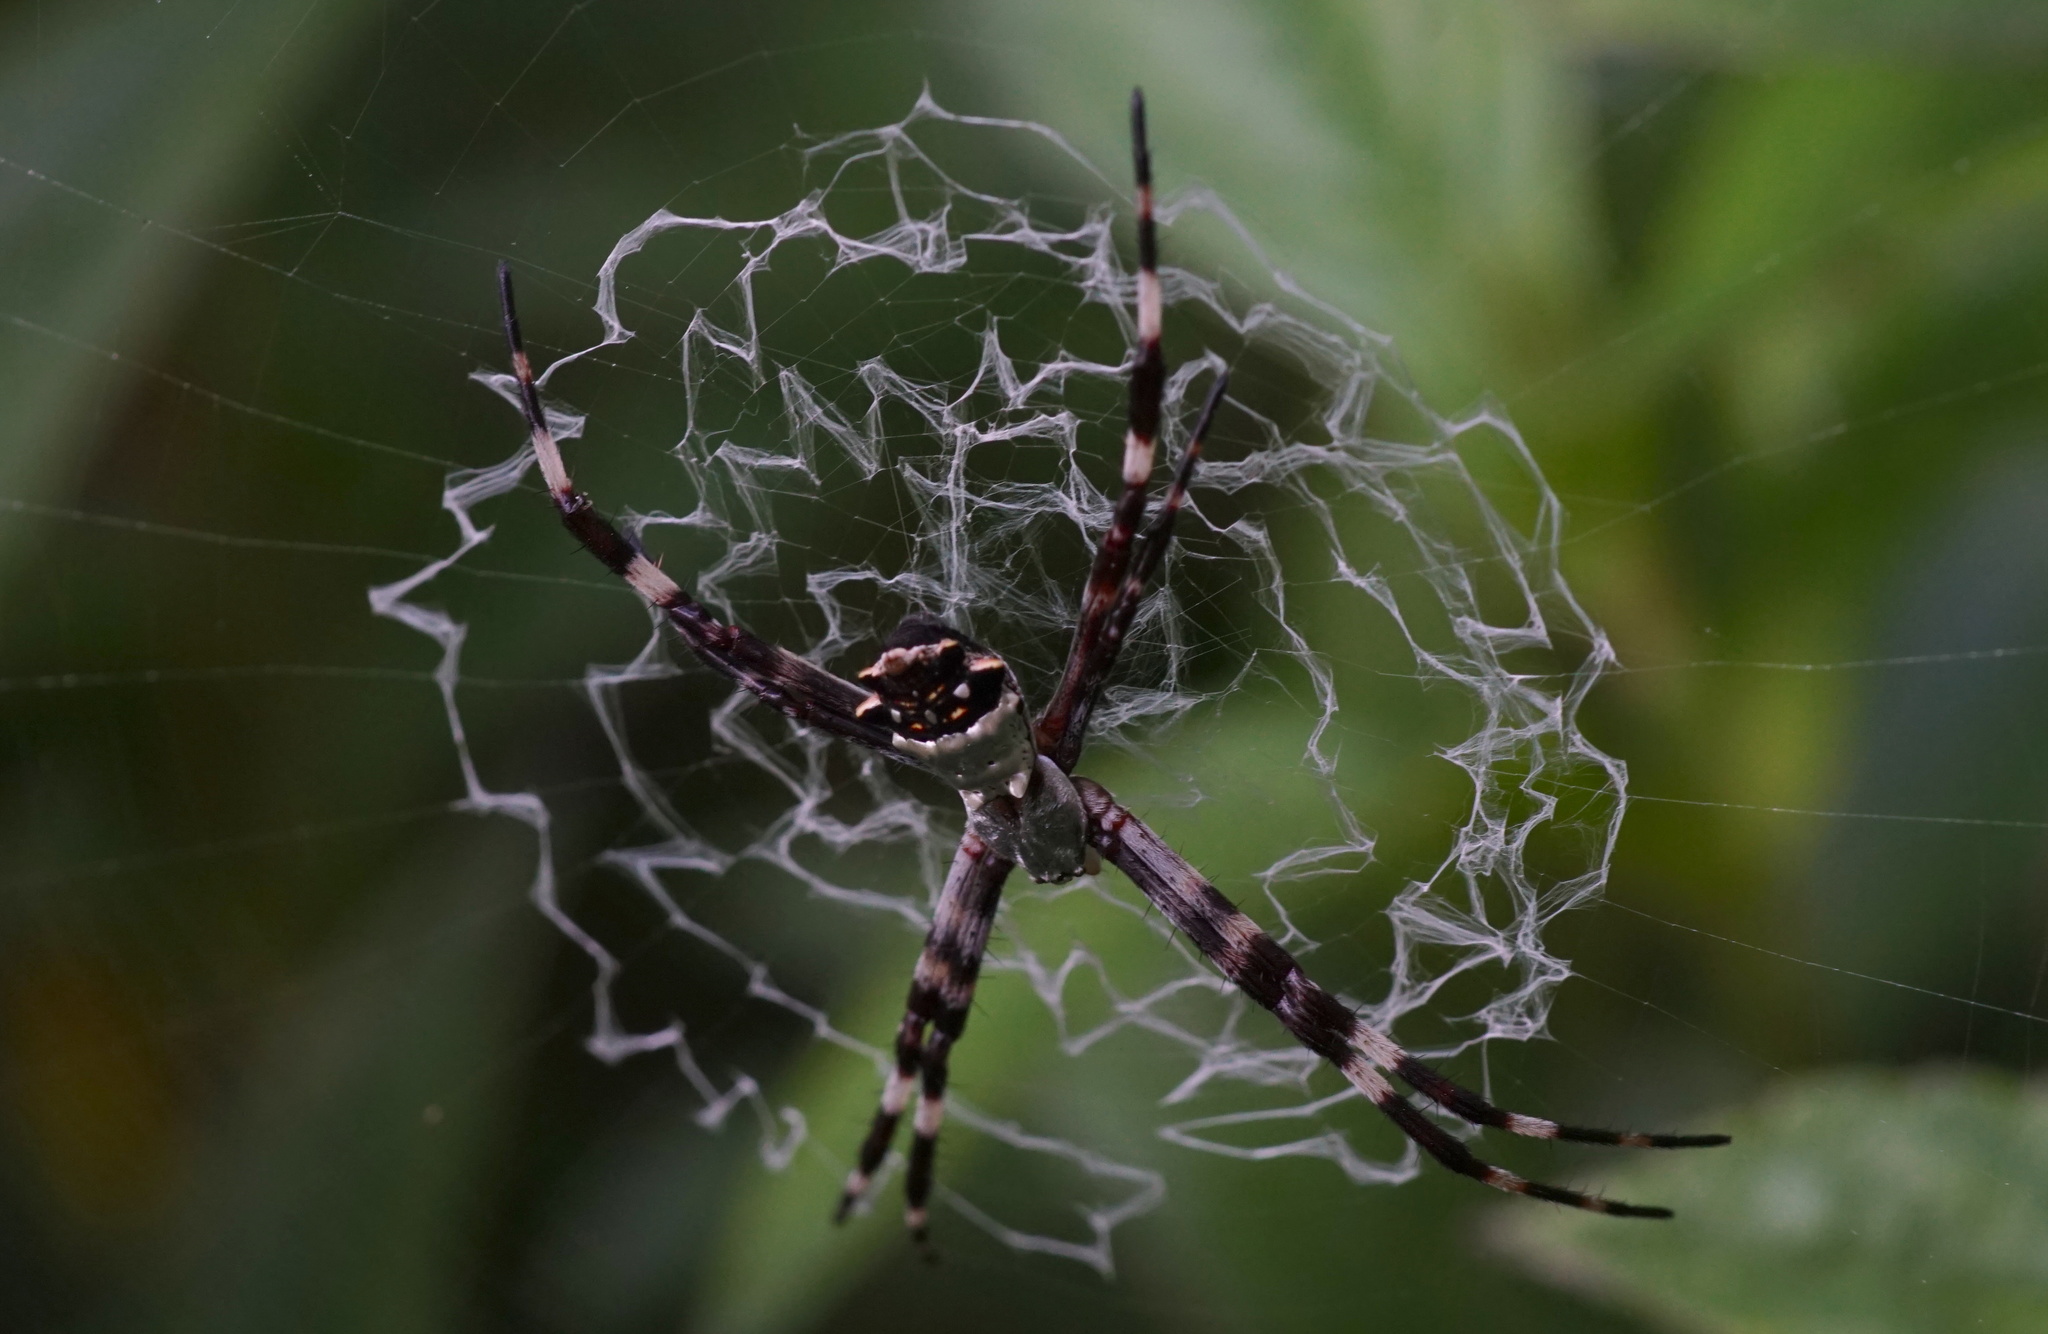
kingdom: Animalia
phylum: Arthropoda
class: Arachnida
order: Araneae
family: Araneidae
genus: Argiope
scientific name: Argiope argentata
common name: Orb weavers
